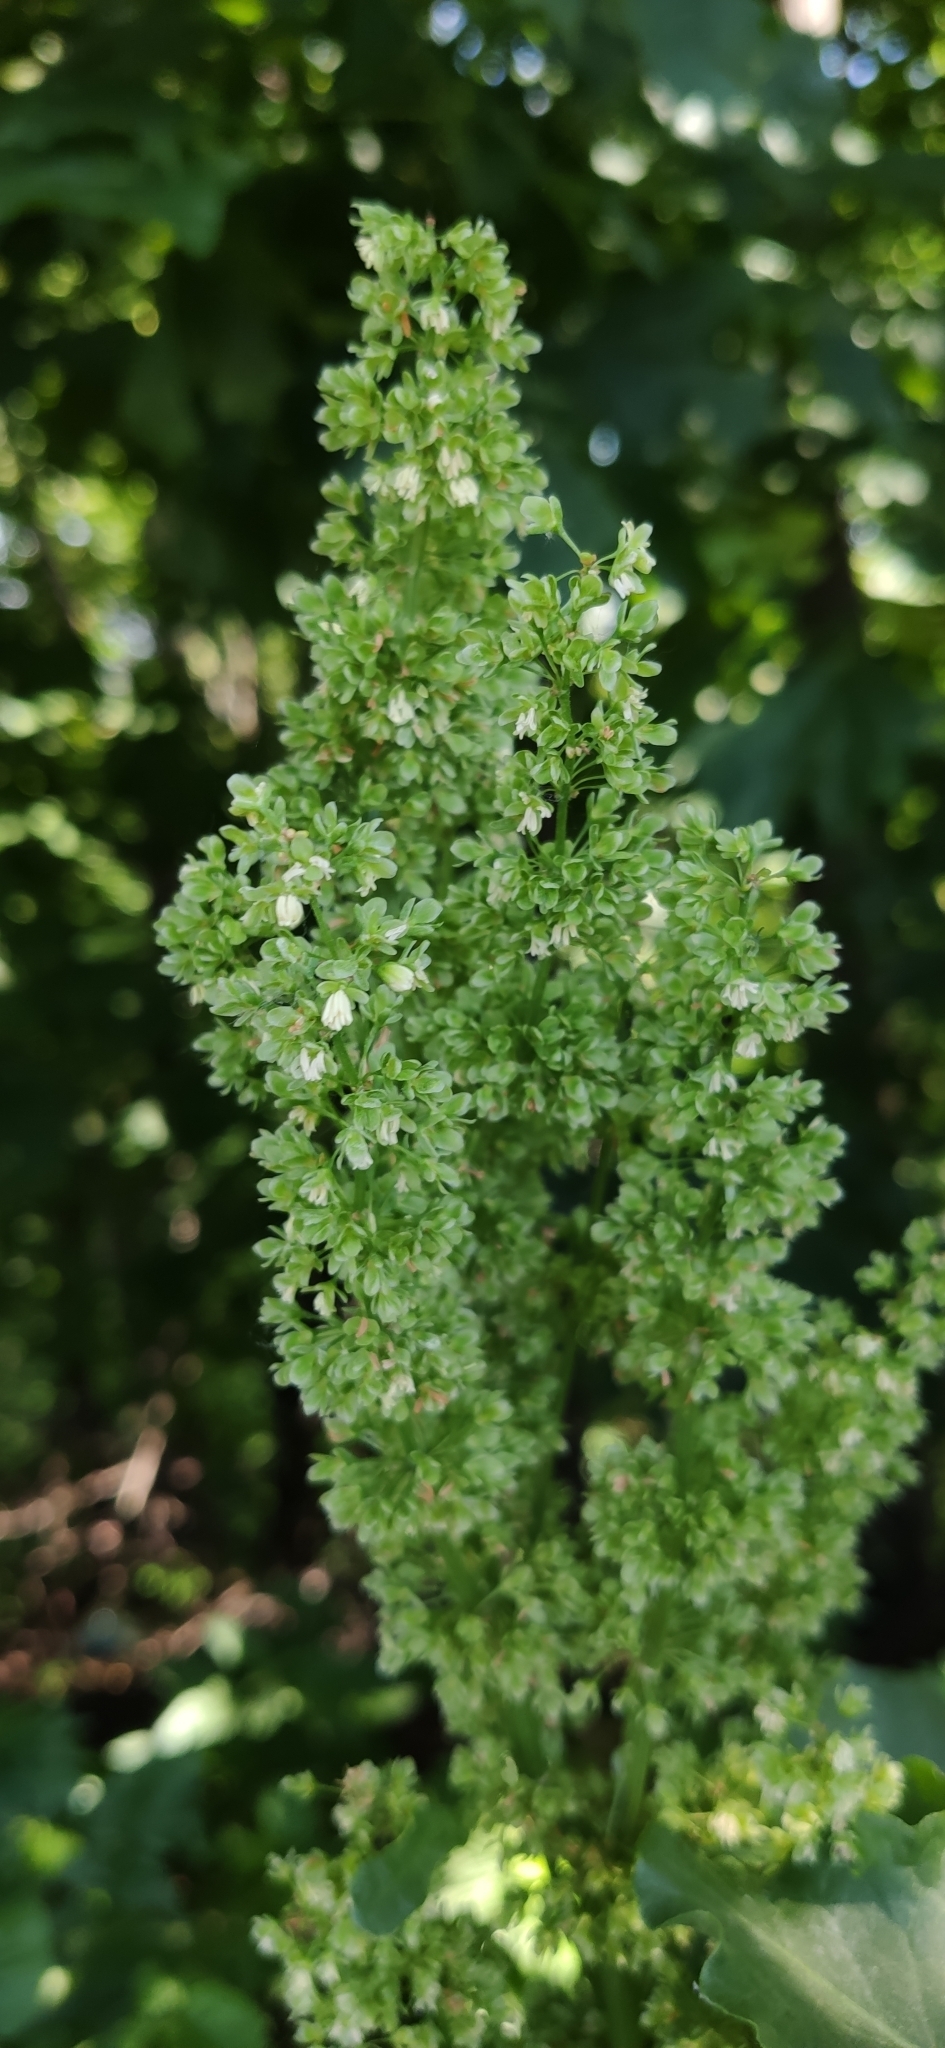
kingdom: Plantae
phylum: Tracheophyta
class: Magnoliopsida
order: Caryophyllales
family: Polygonaceae
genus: Rumex
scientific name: Rumex confertus
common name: Russian dock
